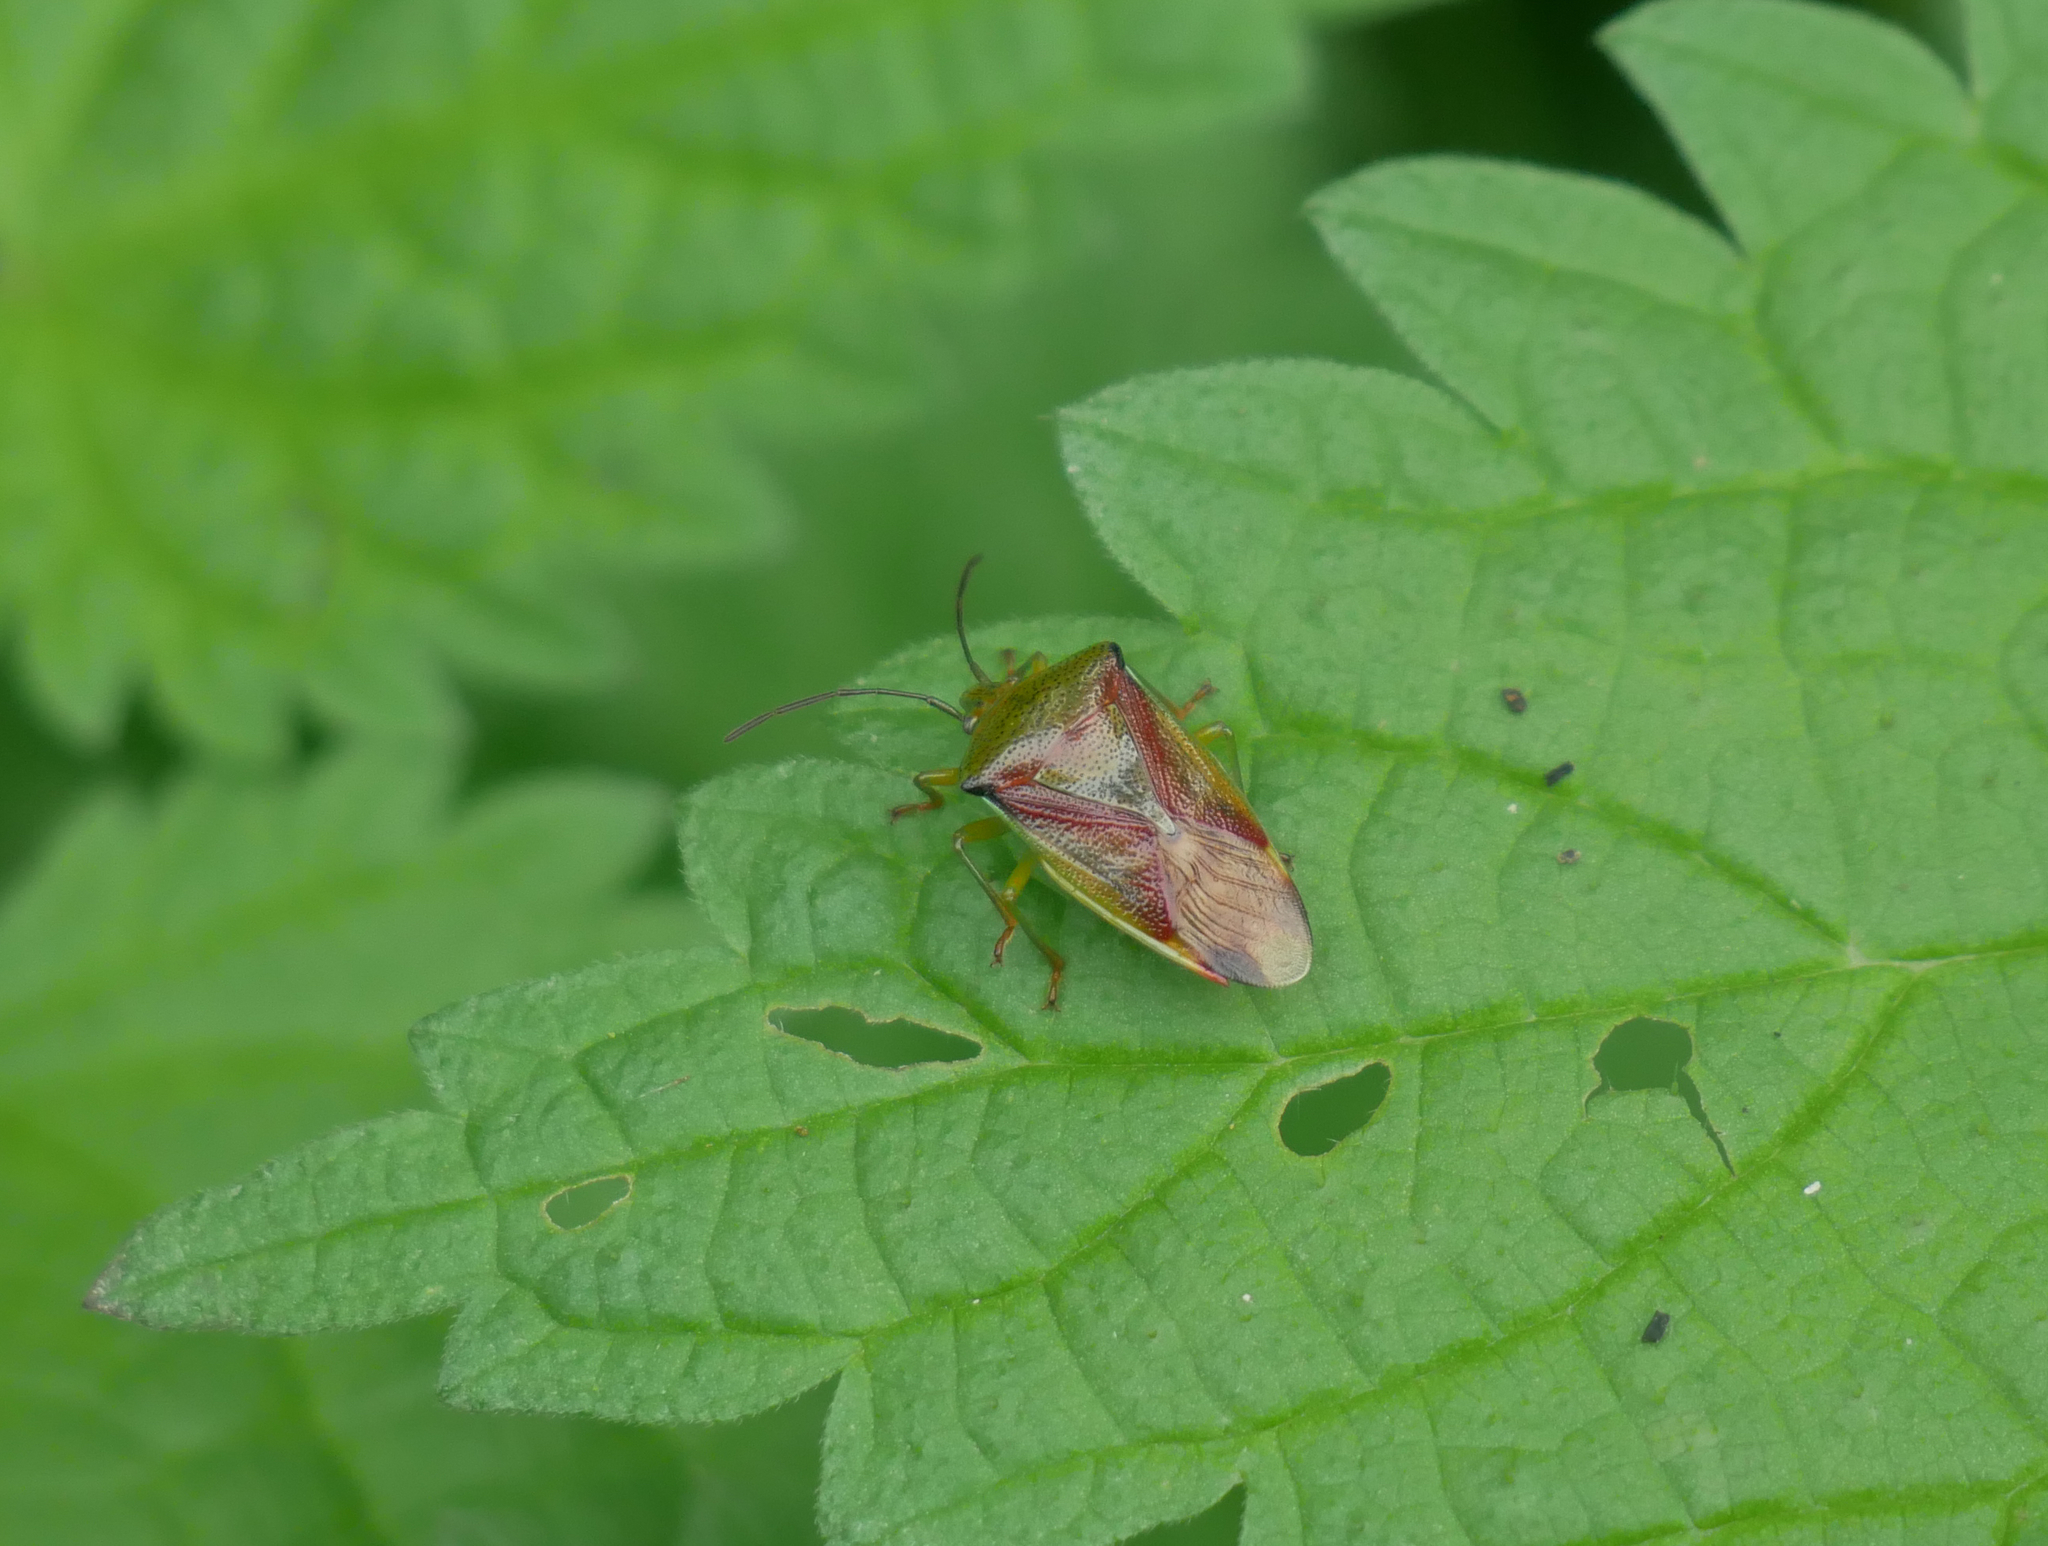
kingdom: Animalia
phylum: Arthropoda
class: Insecta
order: Hemiptera
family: Acanthosomatidae
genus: Elasmostethus
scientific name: Elasmostethus
